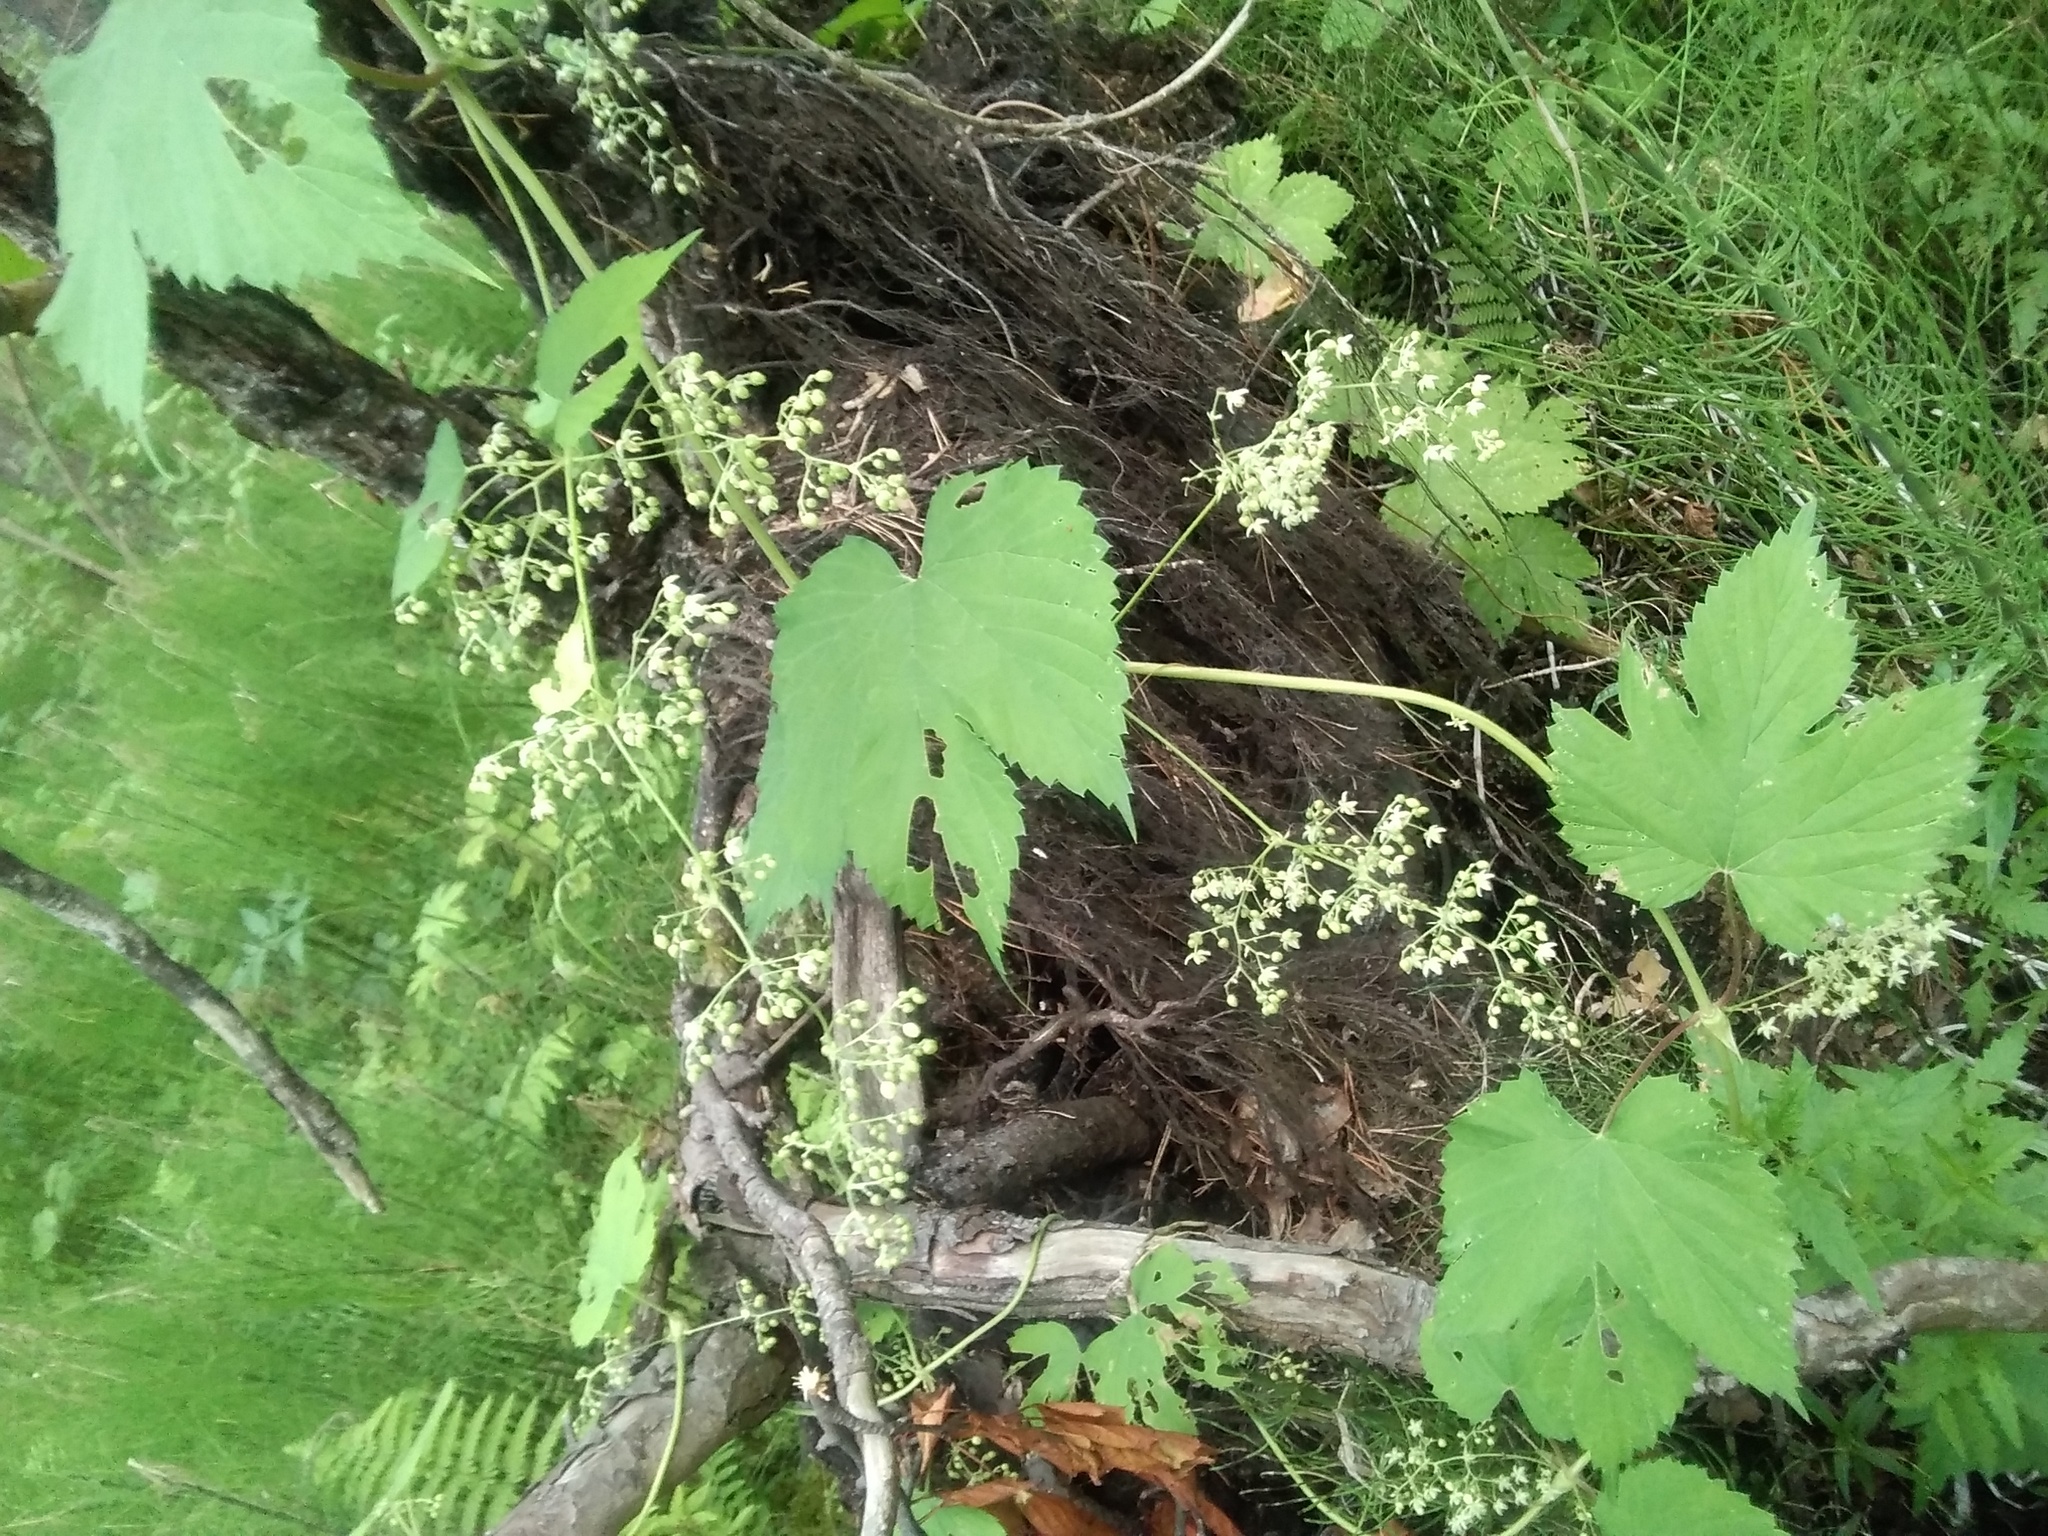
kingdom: Plantae
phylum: Tracheophyta
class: Magnoliopsida
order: Rosales
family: Cannabaceae
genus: Humulus
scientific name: Humulus lupulus
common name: Hop
